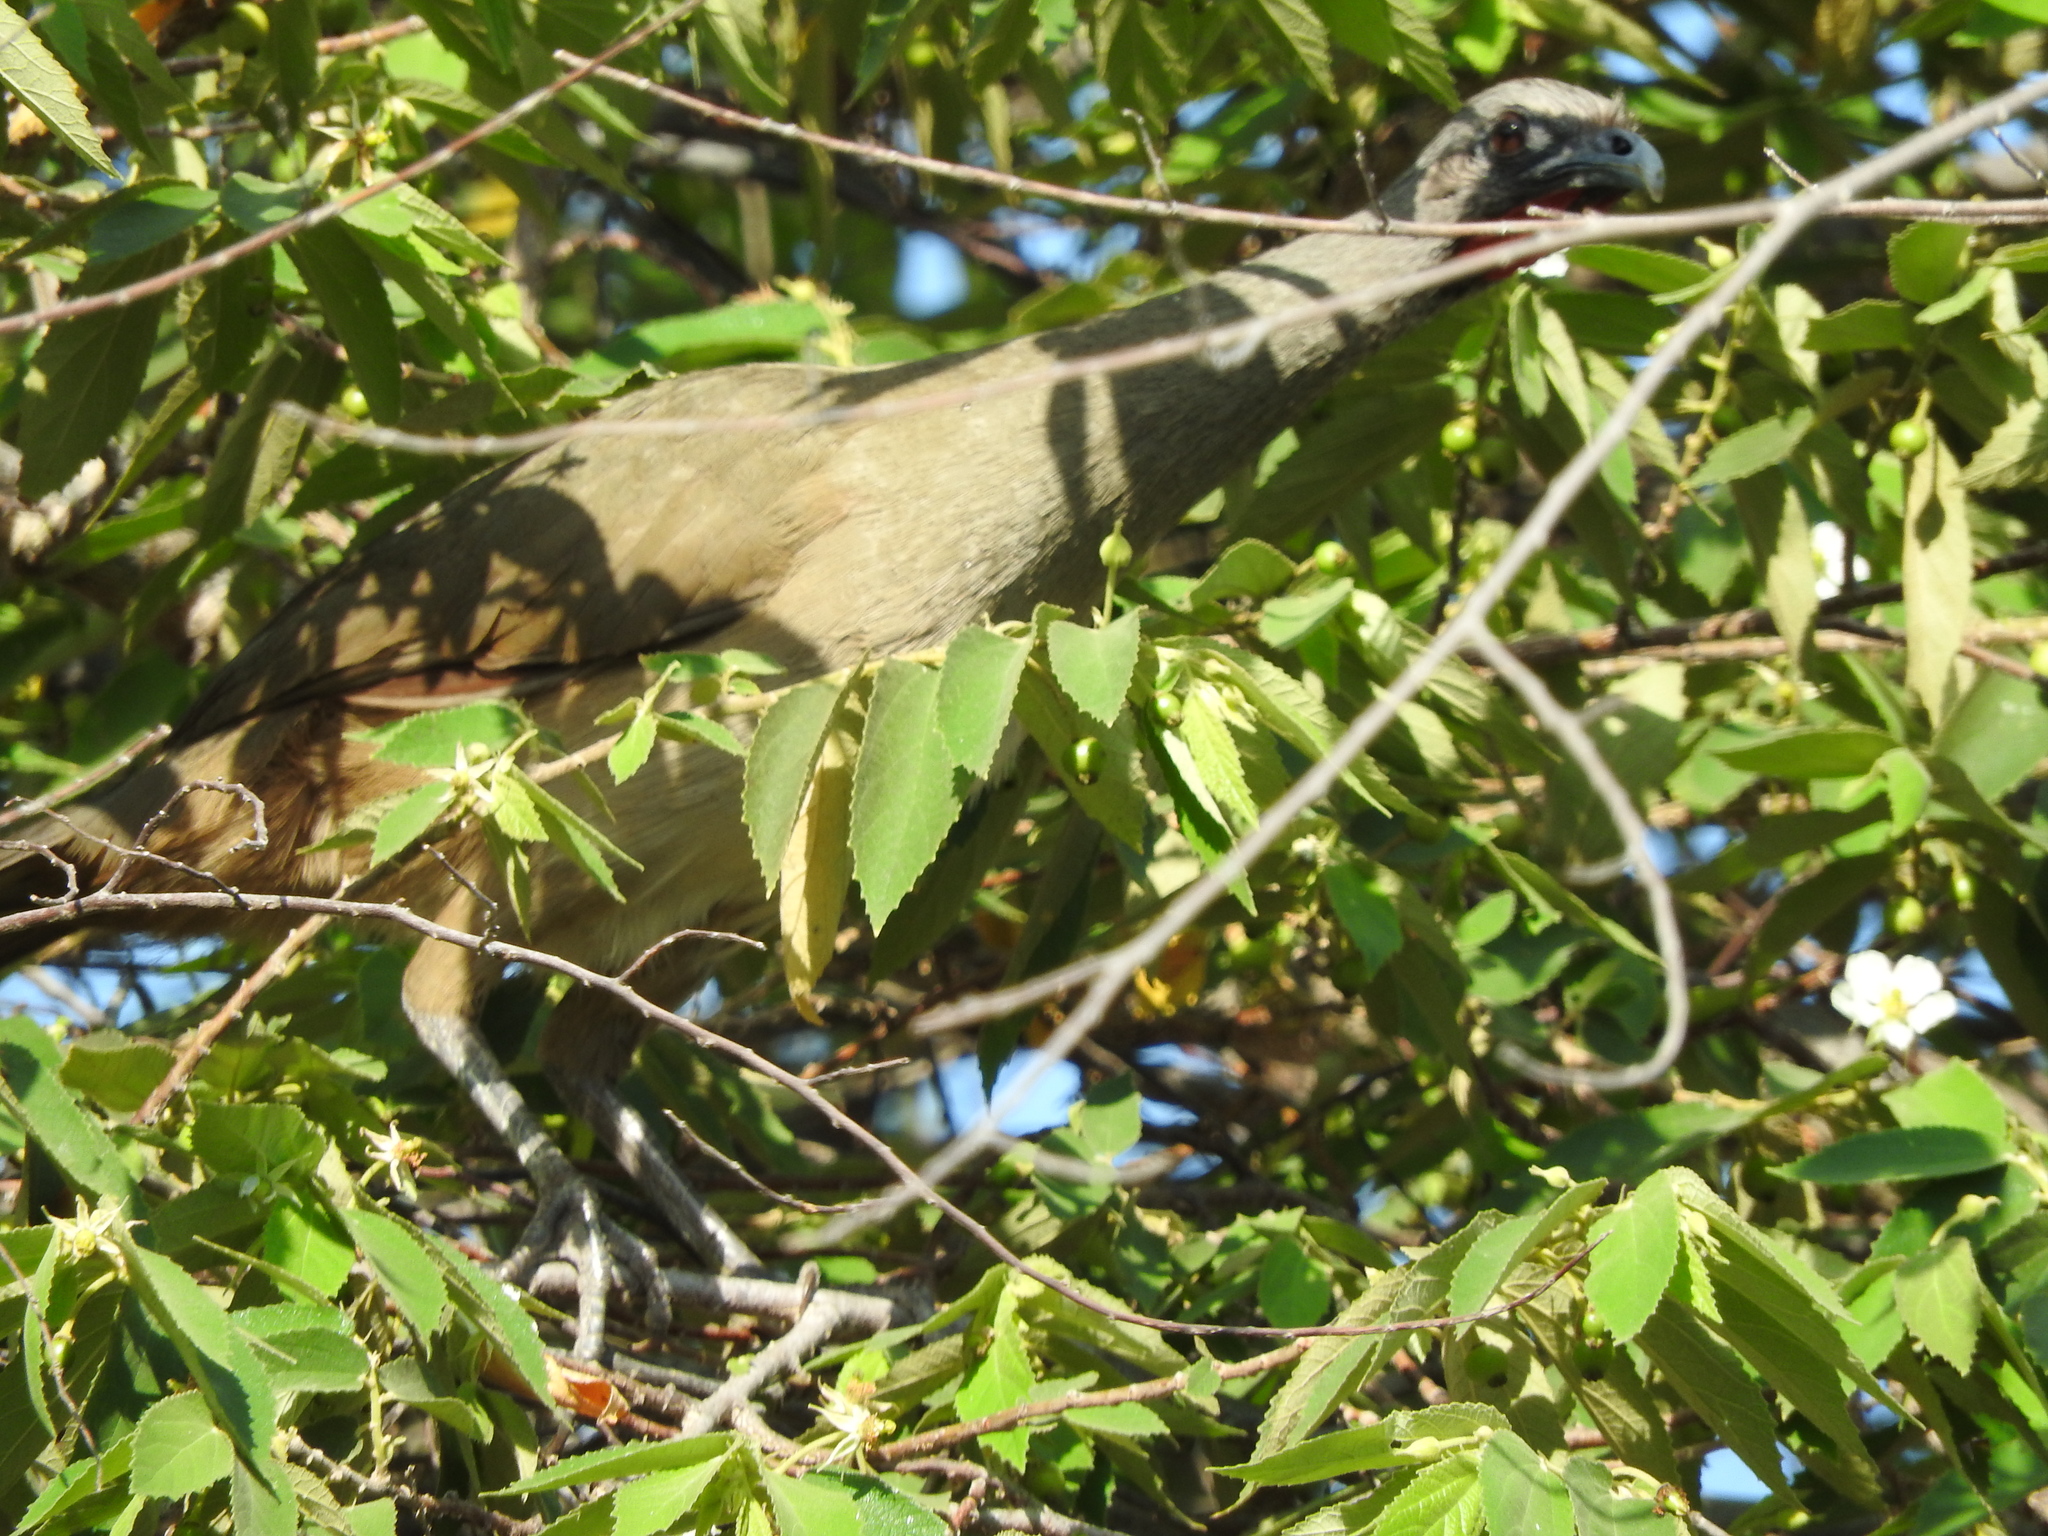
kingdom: Animalia
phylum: Chordata
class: Aves
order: Galliformes
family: Cracidae
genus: Ortalis
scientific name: Ortalis vetula
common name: Plain chachalaca
